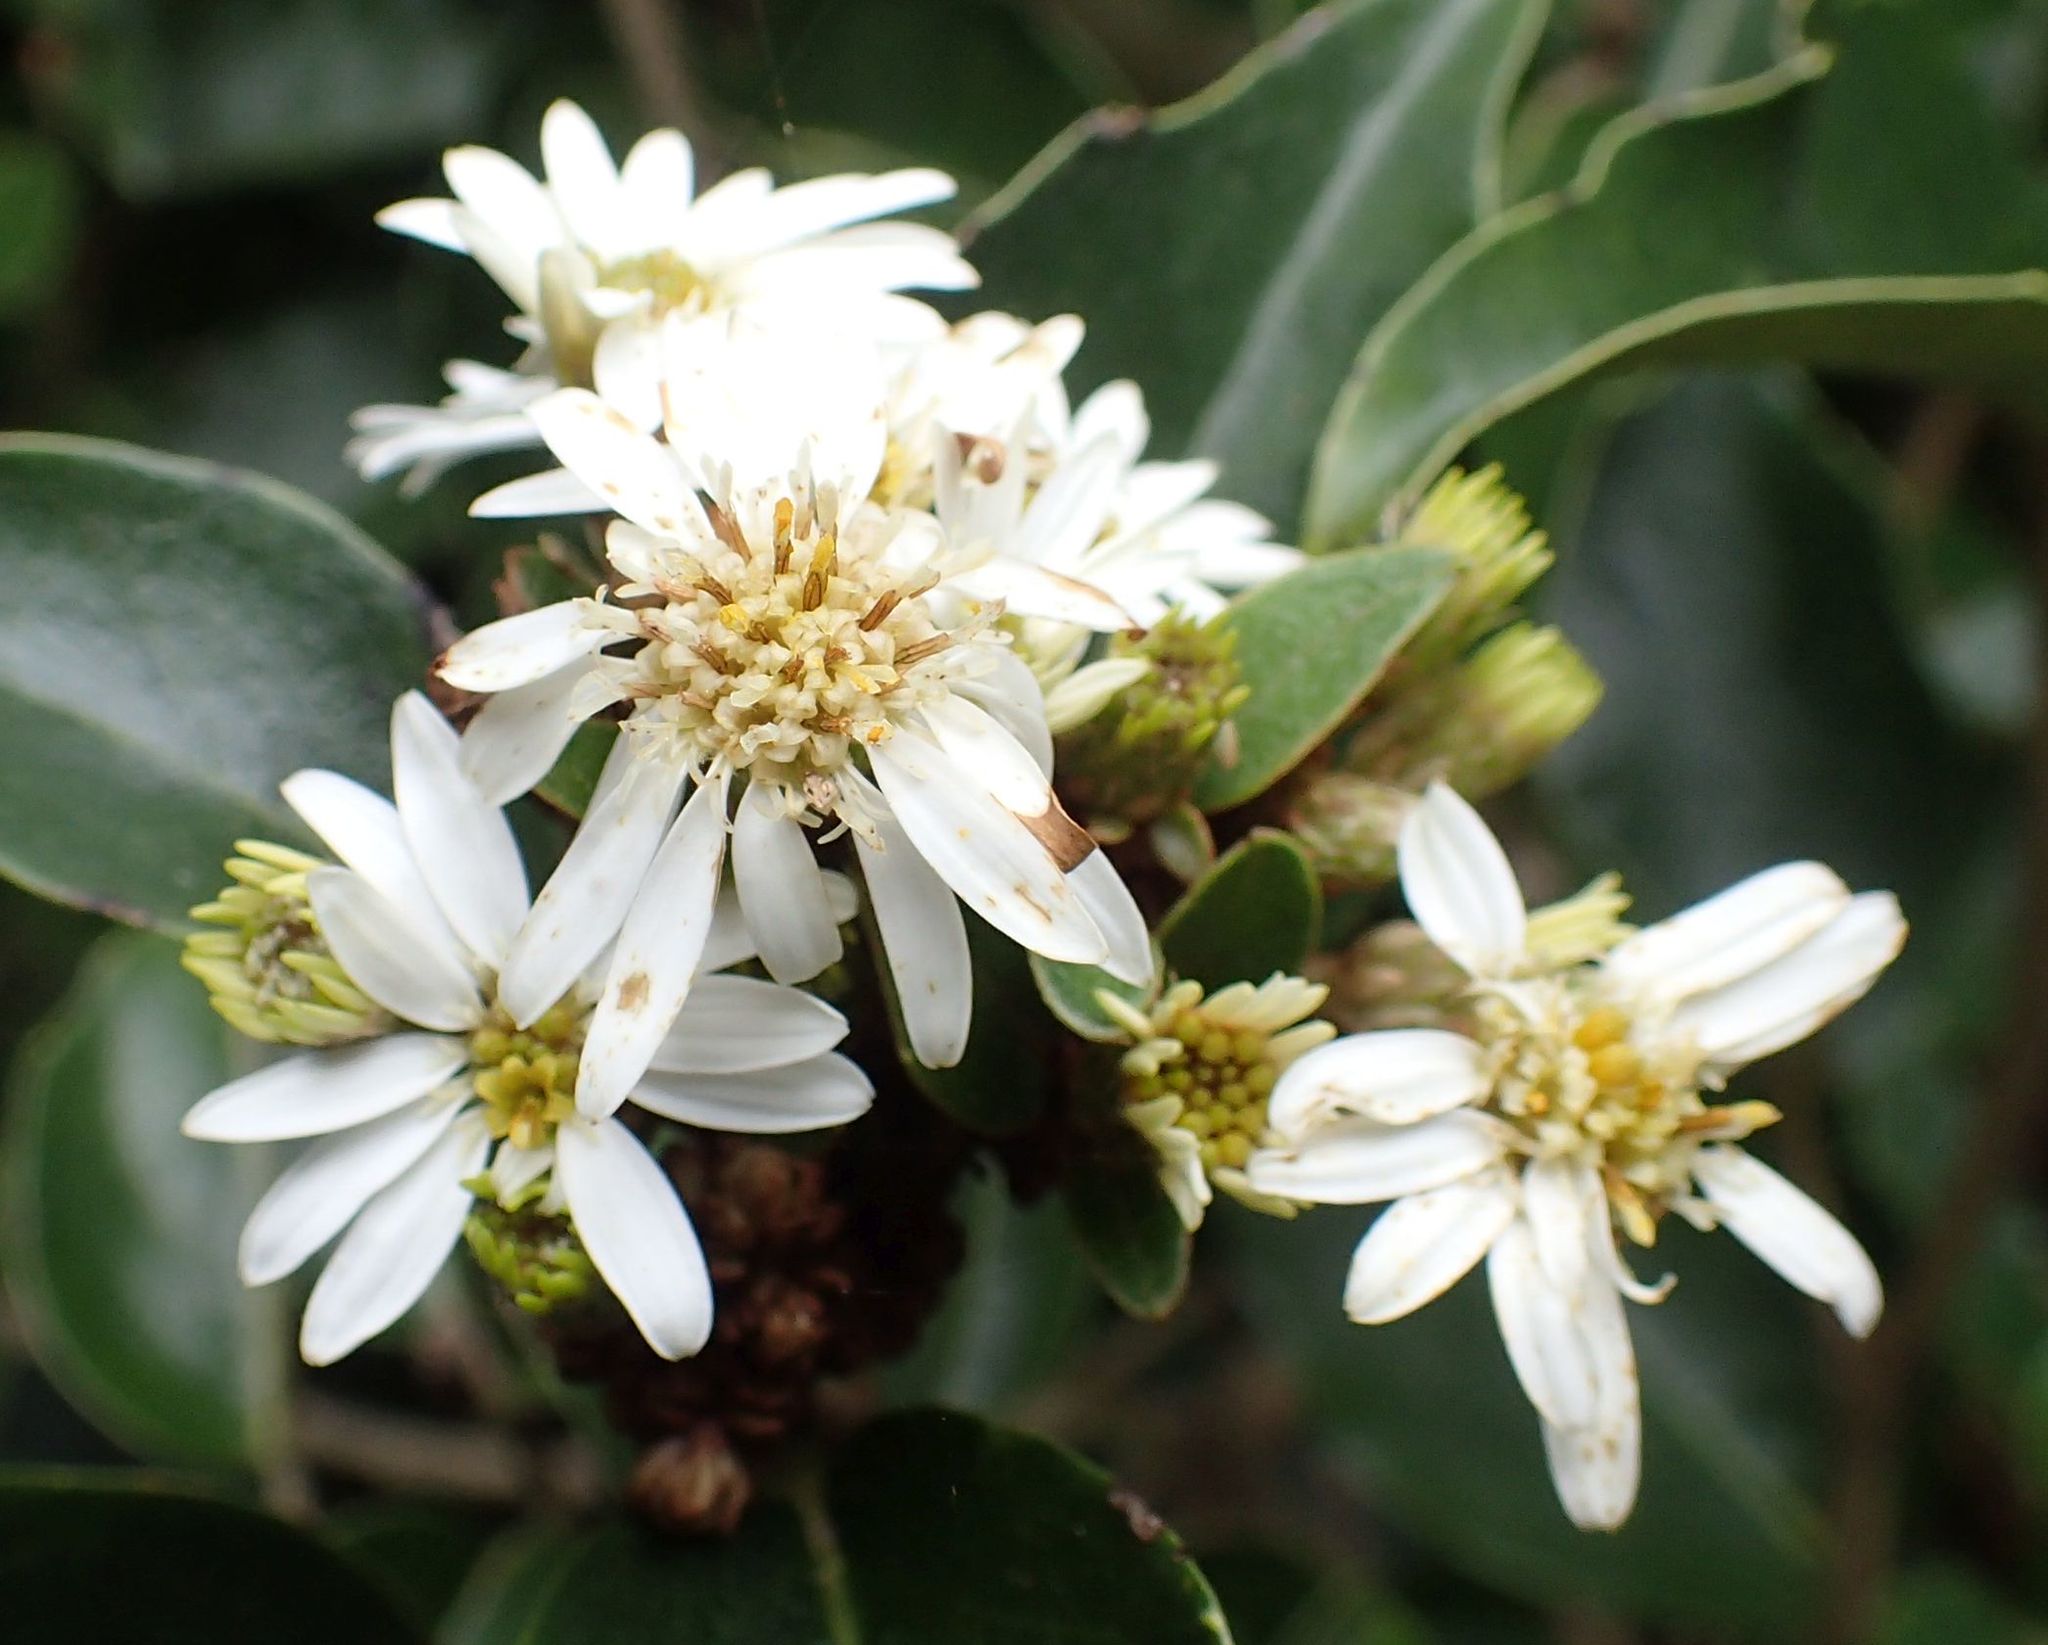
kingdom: Plantae
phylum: Tracheophyta
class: Magnoliopsida
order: Asterales
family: Asteraceae
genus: Olearia
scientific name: Olearia avicenniifolia
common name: Mangrove-leaf daisybush
